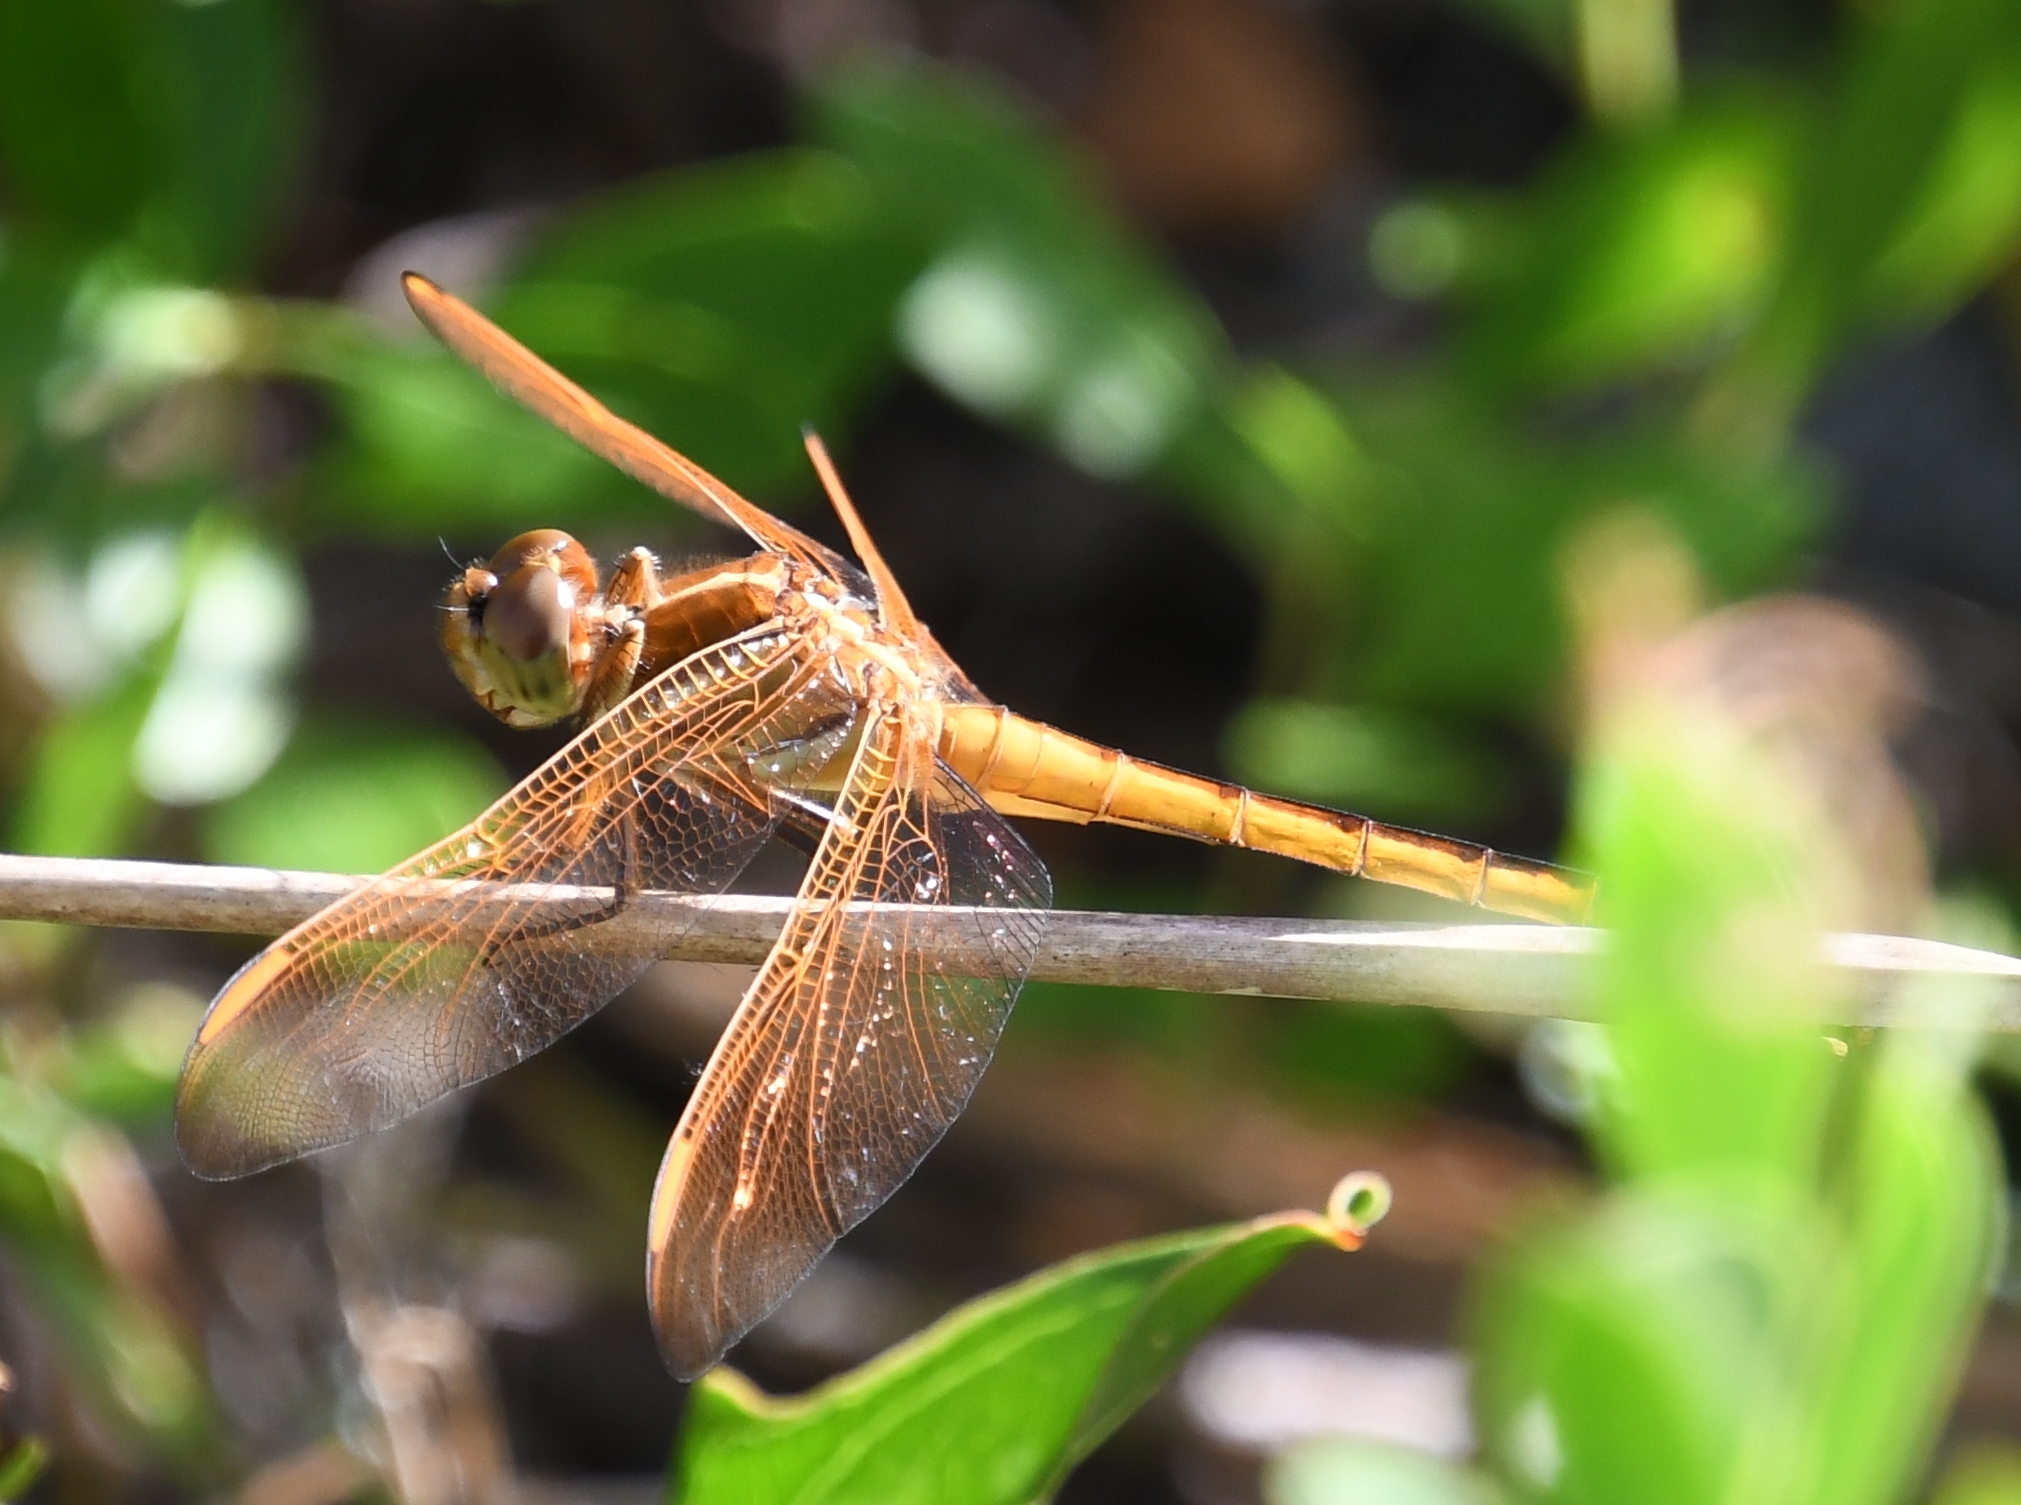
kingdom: Animalia
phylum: Arthropoda
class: Insecta
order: Odonata
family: Libellulidae
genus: Libellula
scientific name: Libellula auripennis
